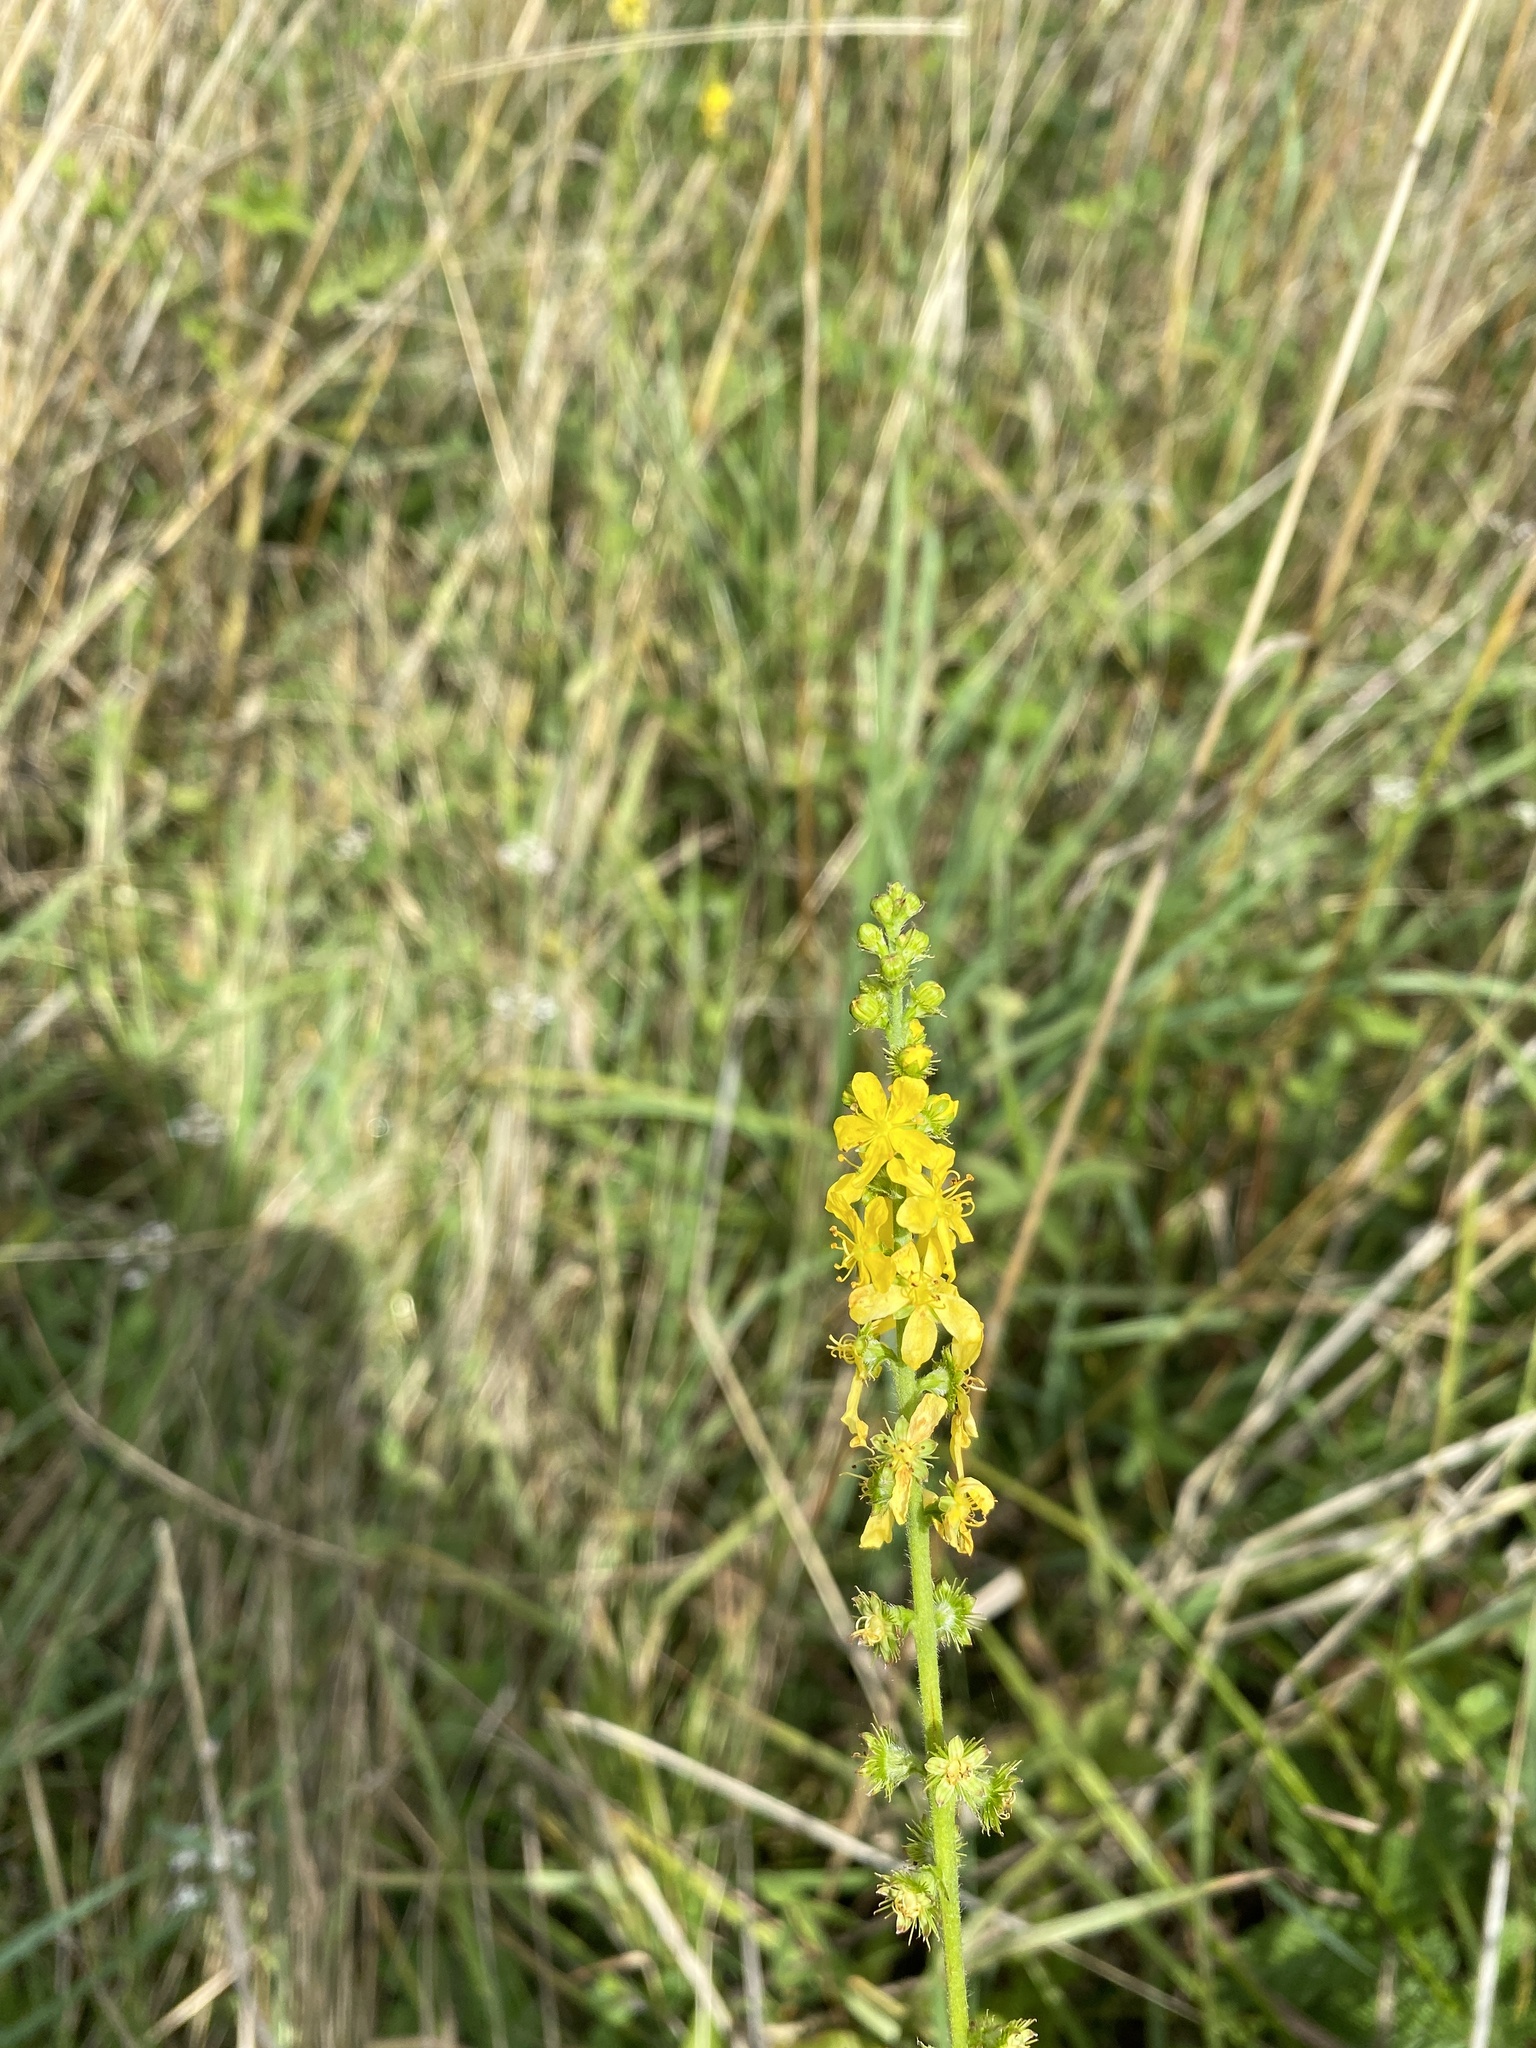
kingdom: Plantae
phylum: Tracheophyta
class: Magnoliopsida
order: Rosales
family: Rosaceae
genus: Agrimonia
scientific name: Agrimonia eupatoria
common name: Agrimony
